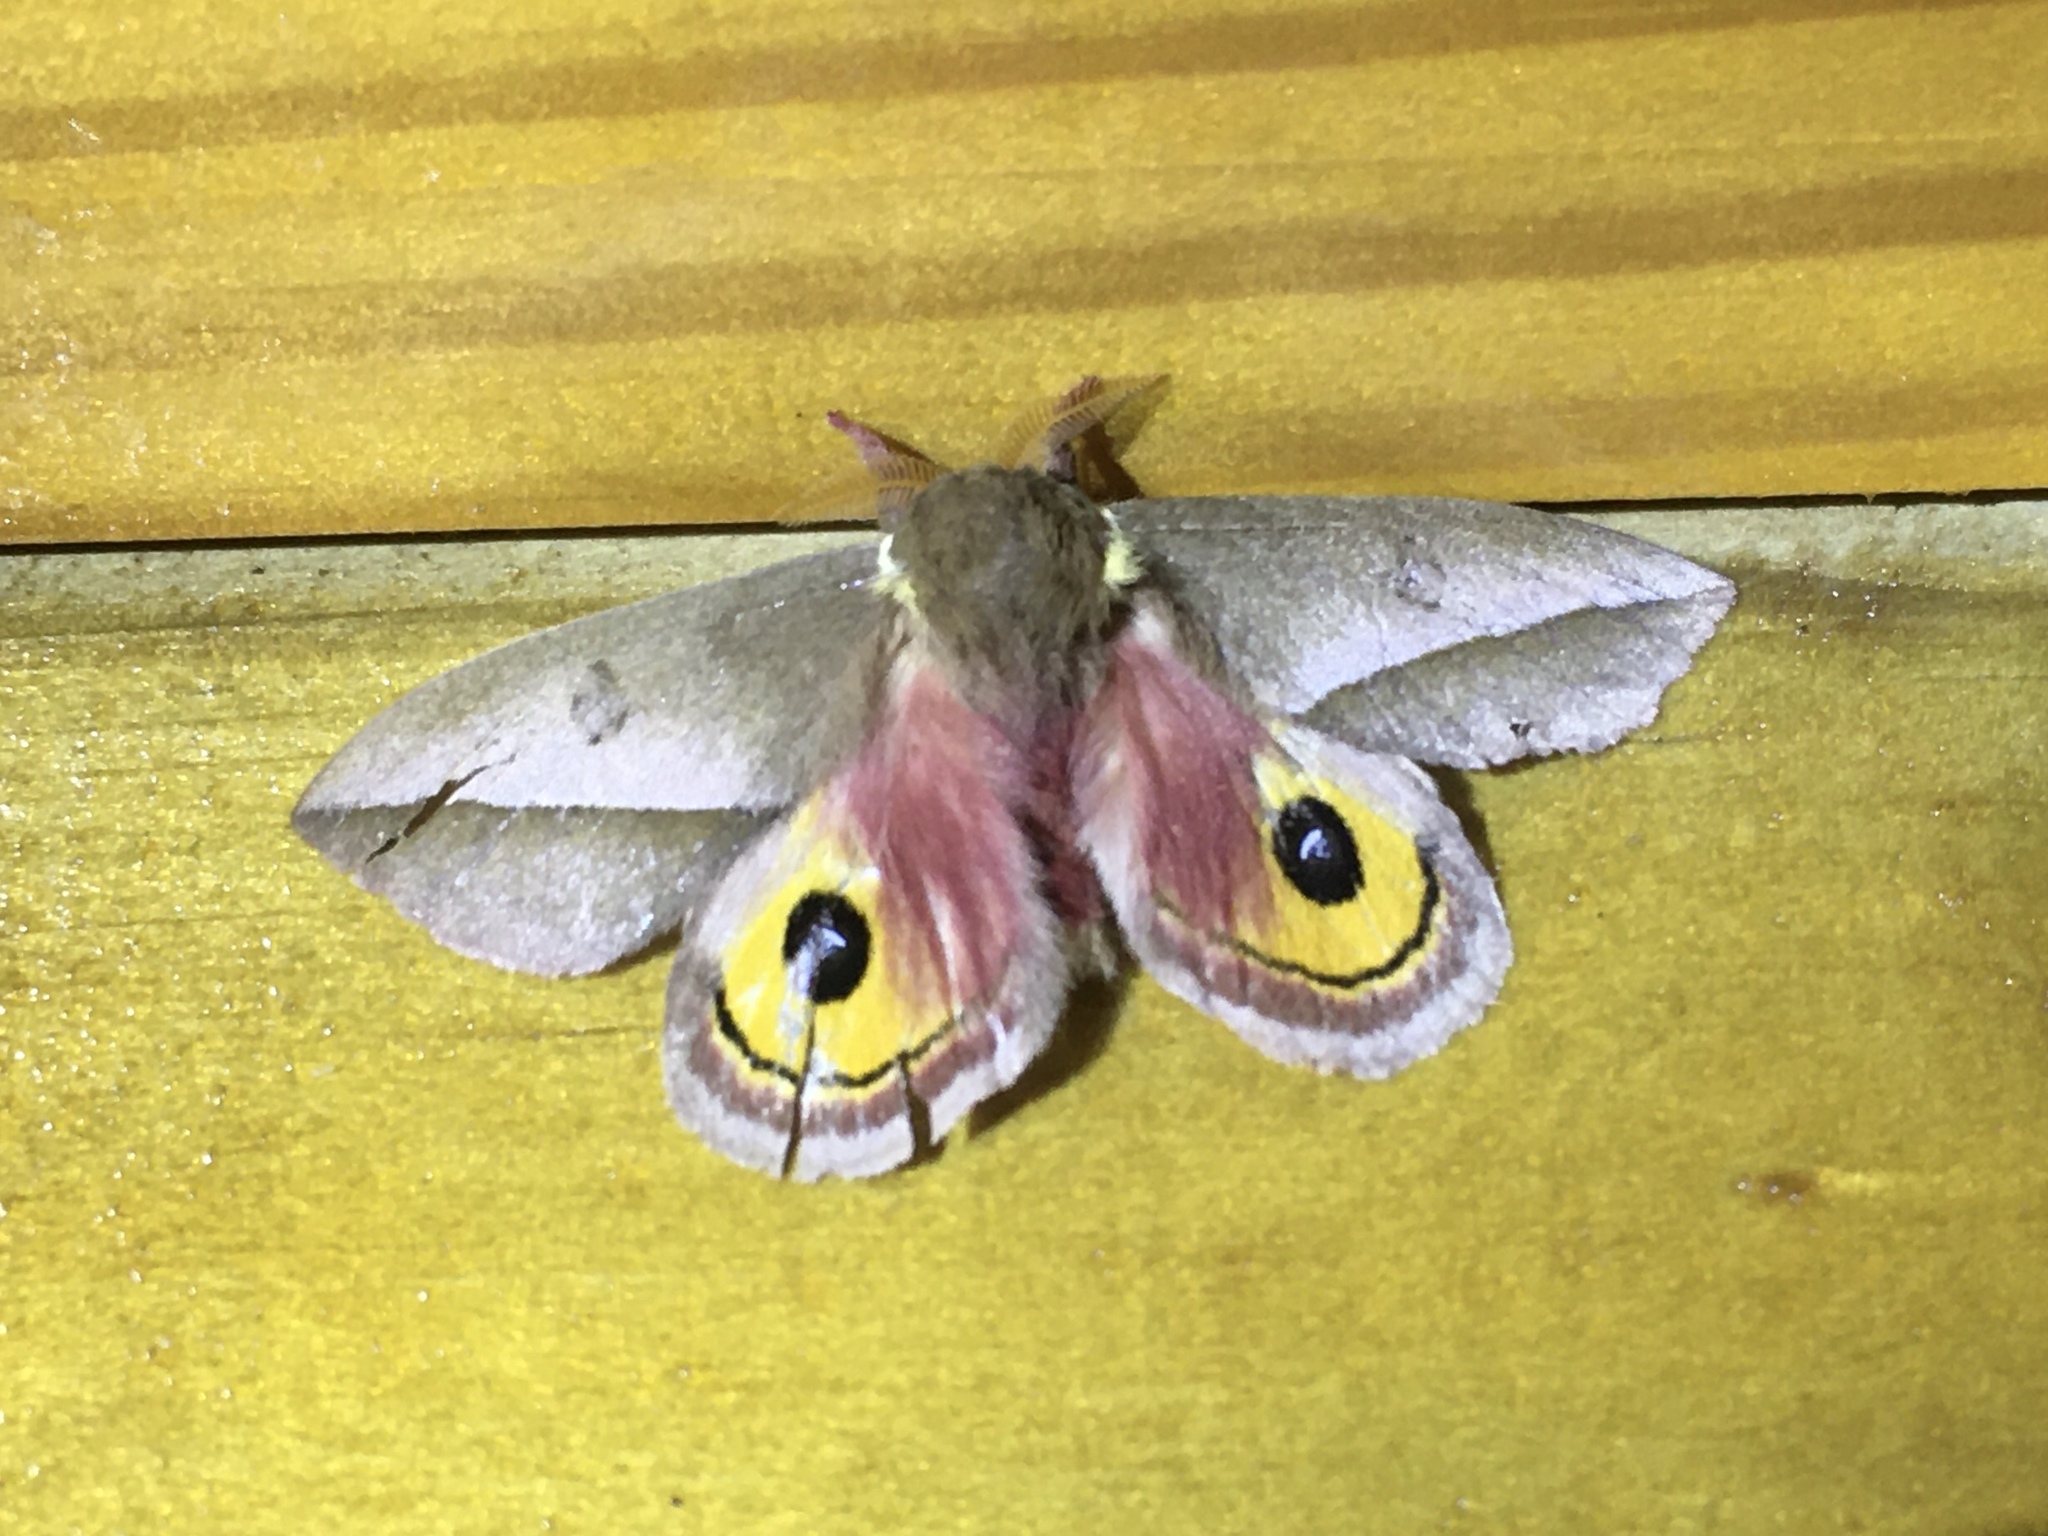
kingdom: Animalia
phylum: Arthropoda
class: Insecta
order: Lepidoptera
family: Saturniidae
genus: Automeris
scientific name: Automeris ovalina
